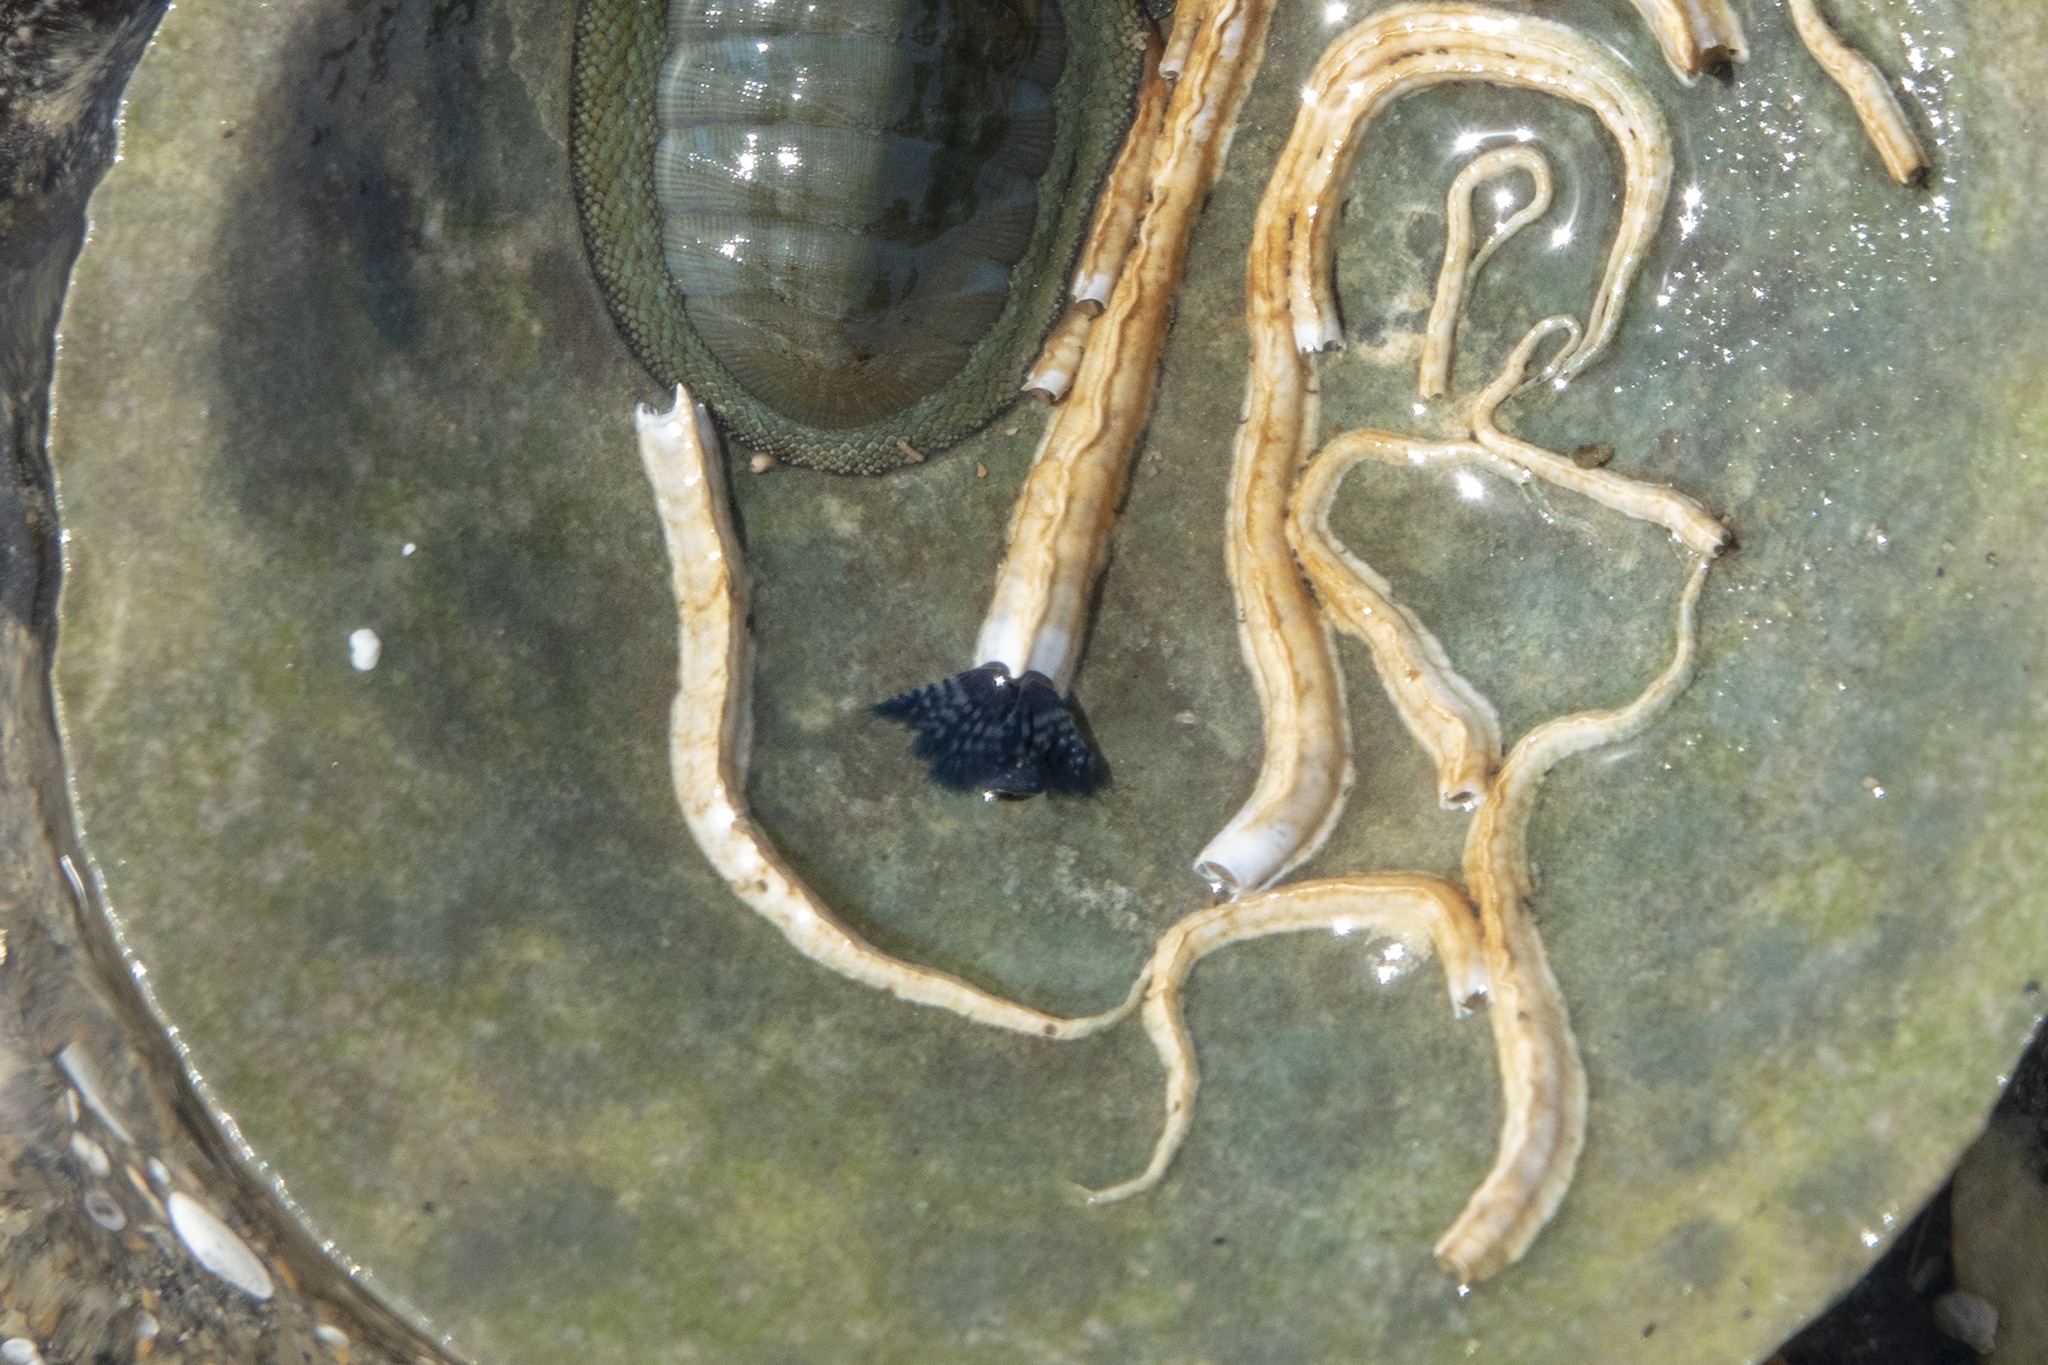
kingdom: Animalia
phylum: Annelida
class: Polychaeta
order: Sabellida
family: Serpulidae
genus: Spirobranchus
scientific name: Spirobranchus cariniferus
